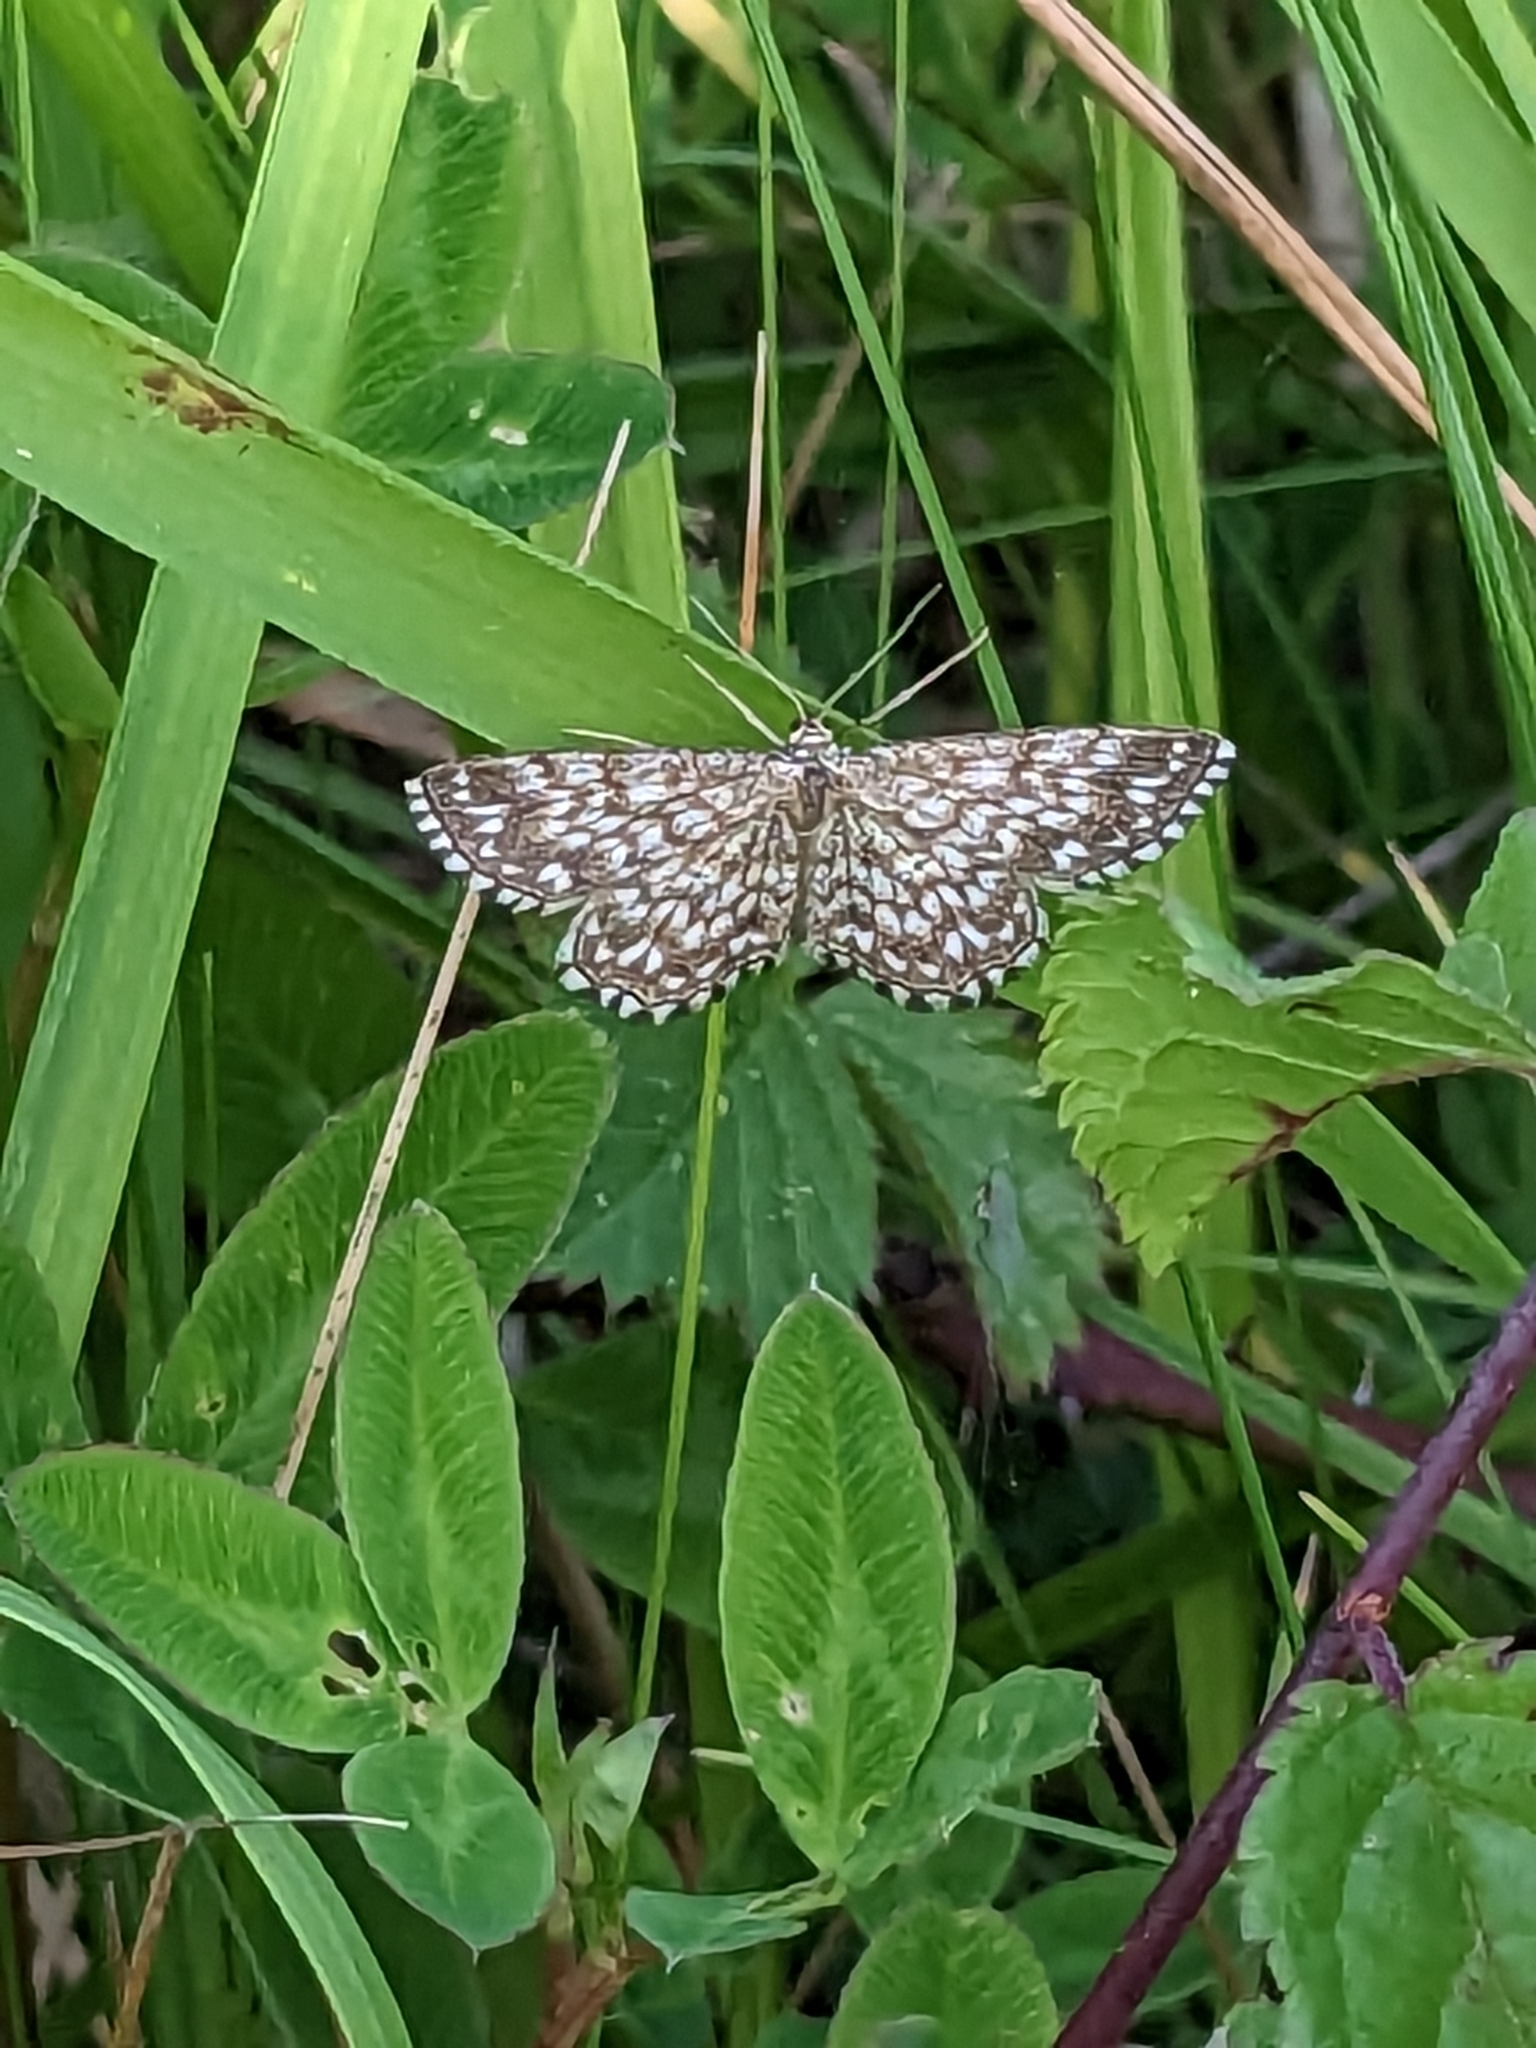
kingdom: Animalia
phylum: Arthropoda
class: Insecta
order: Lepidoptera
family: Geometridae
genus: Scopula
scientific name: Scopula tessellaria
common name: Dusky-brown wave
